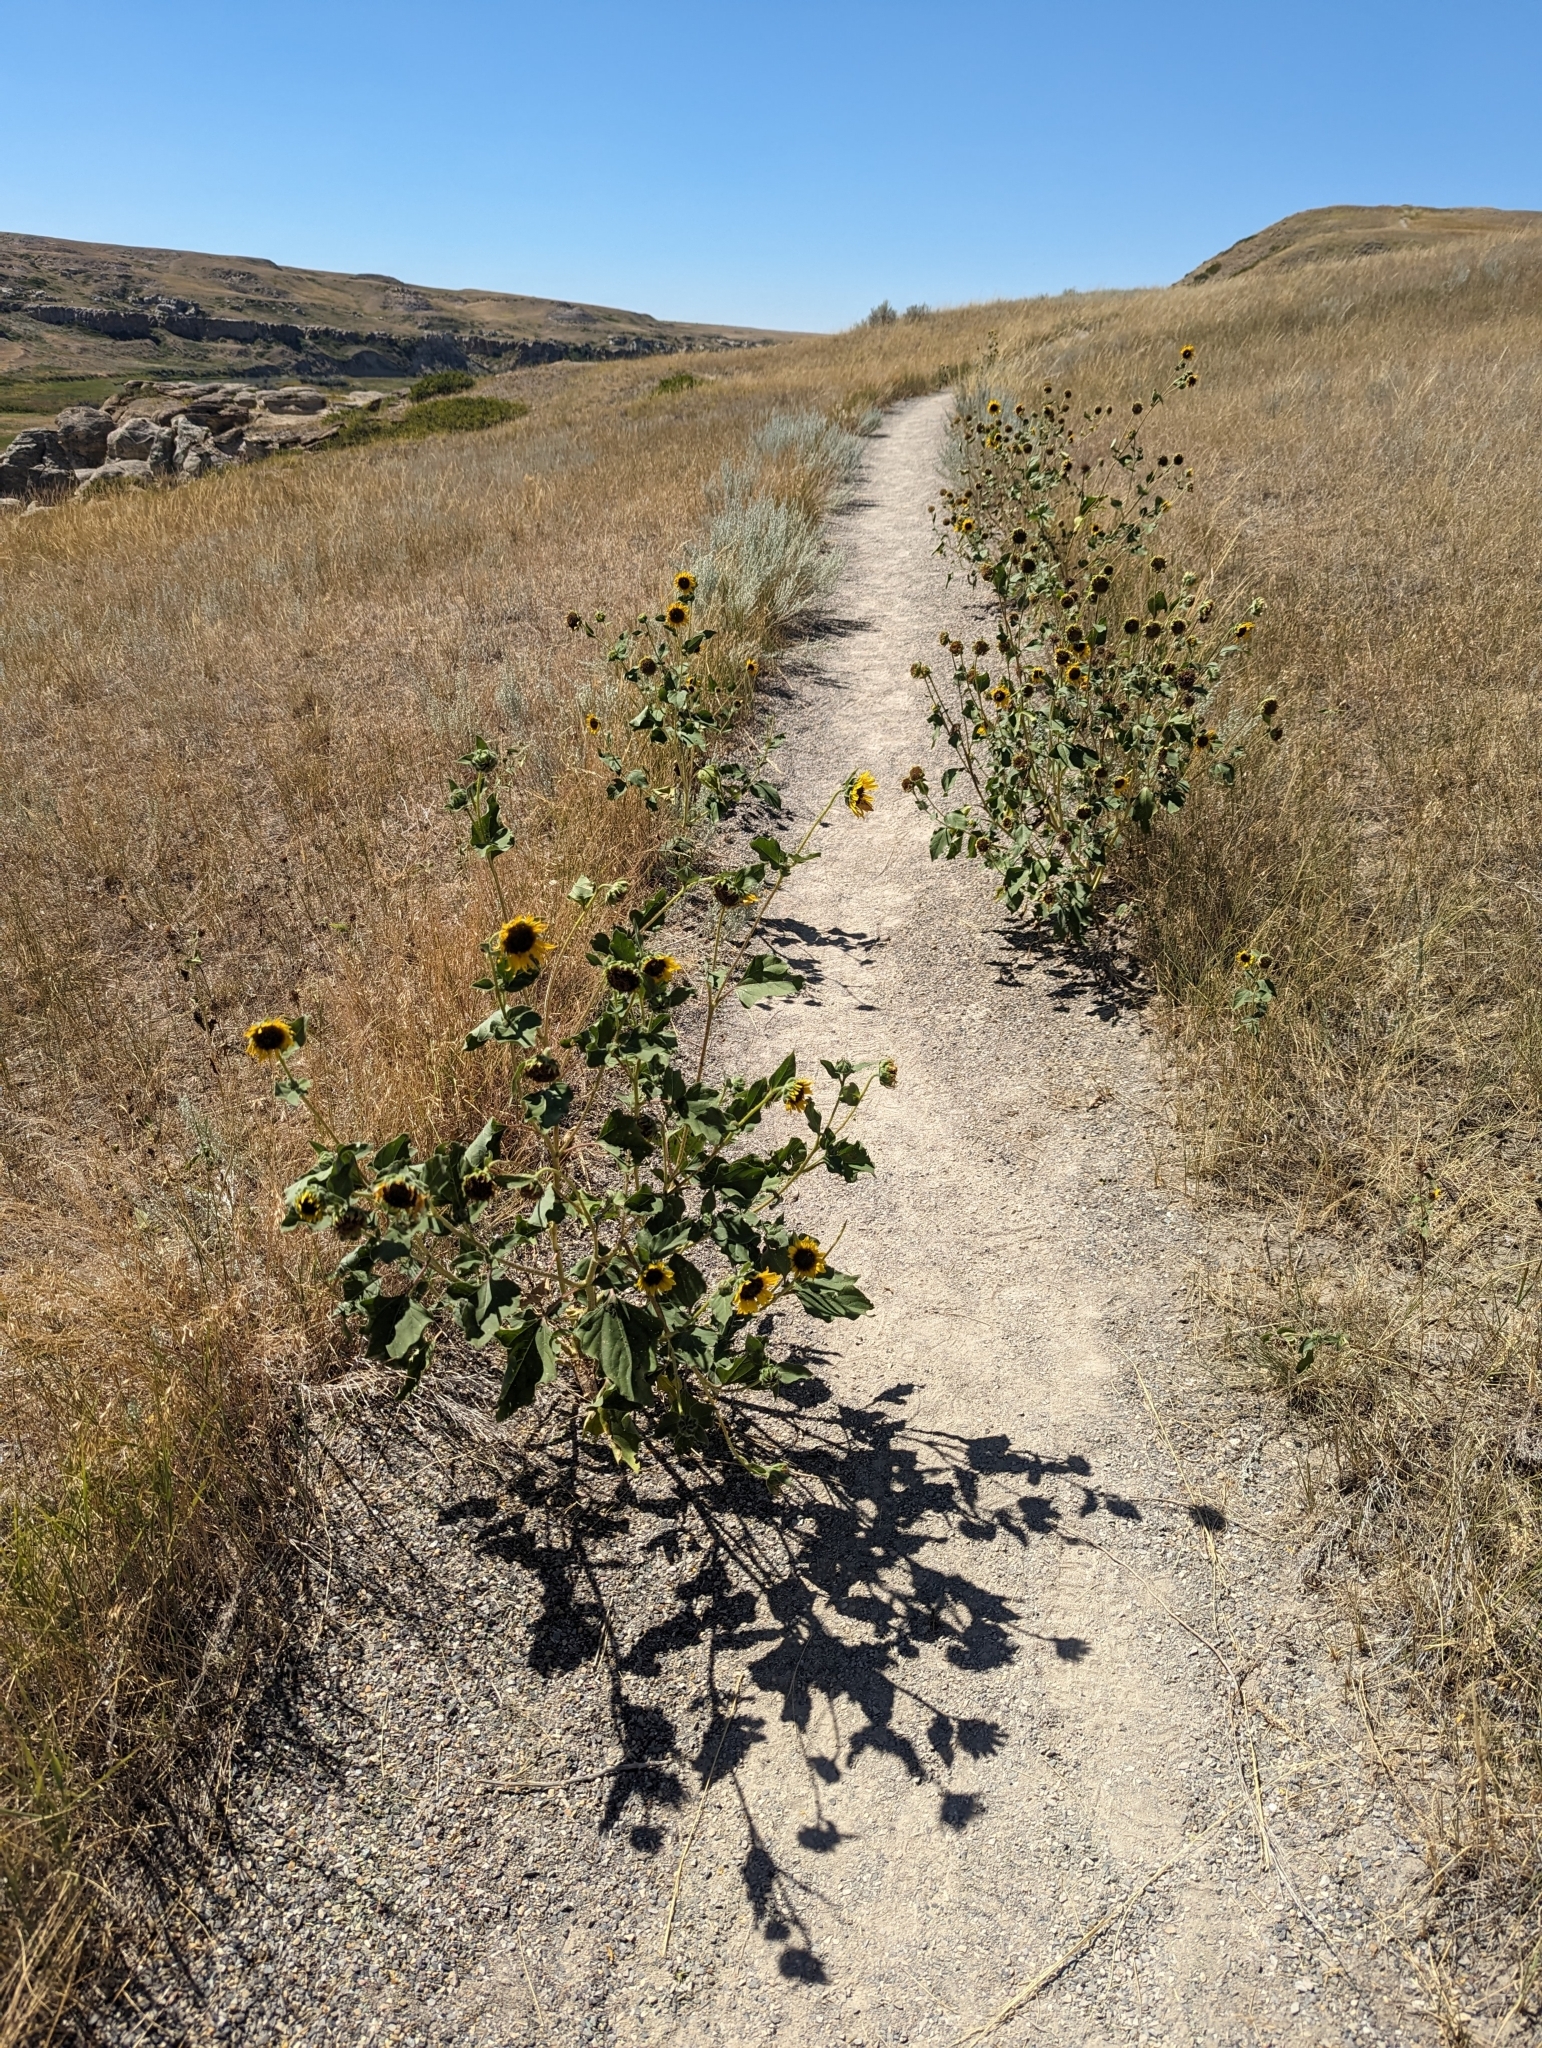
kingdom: Plantae
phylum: Tracheophyta
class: Magnoliopsida
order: Asterales
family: Asteraceae
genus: Helianthus
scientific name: Helianthus annuus
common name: Sunflower
